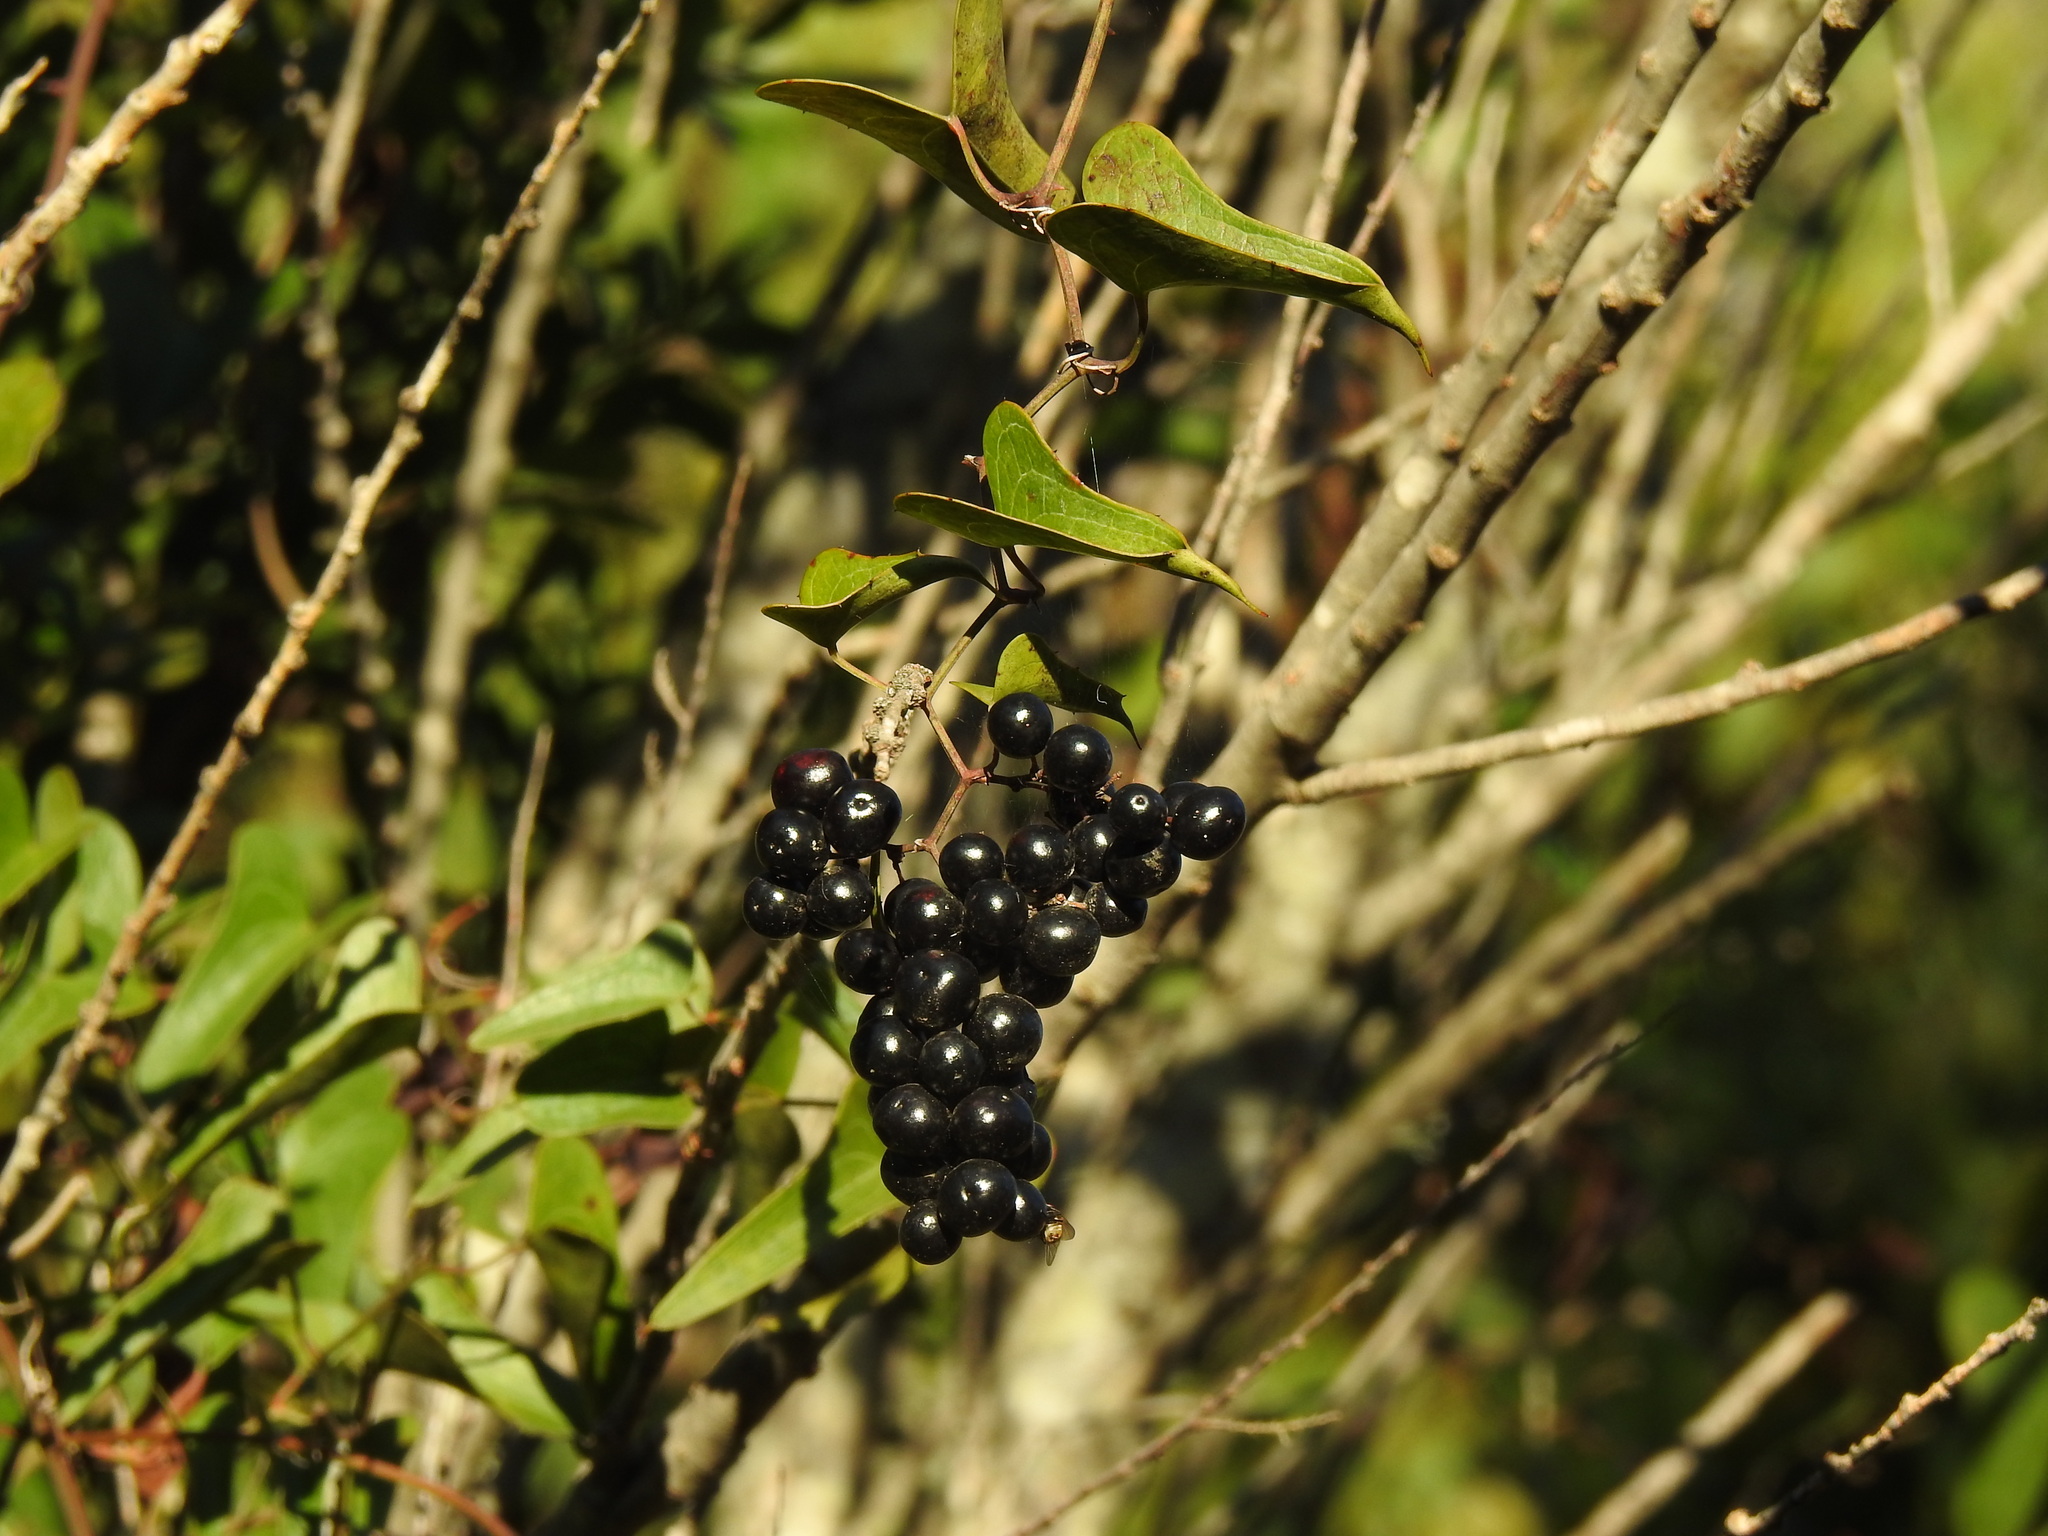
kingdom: Plantae
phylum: Tracheophyta
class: Liliopsida
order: Liliales
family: Smilacaceae
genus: Smilax
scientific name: Smilax aspera
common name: Common smilax
